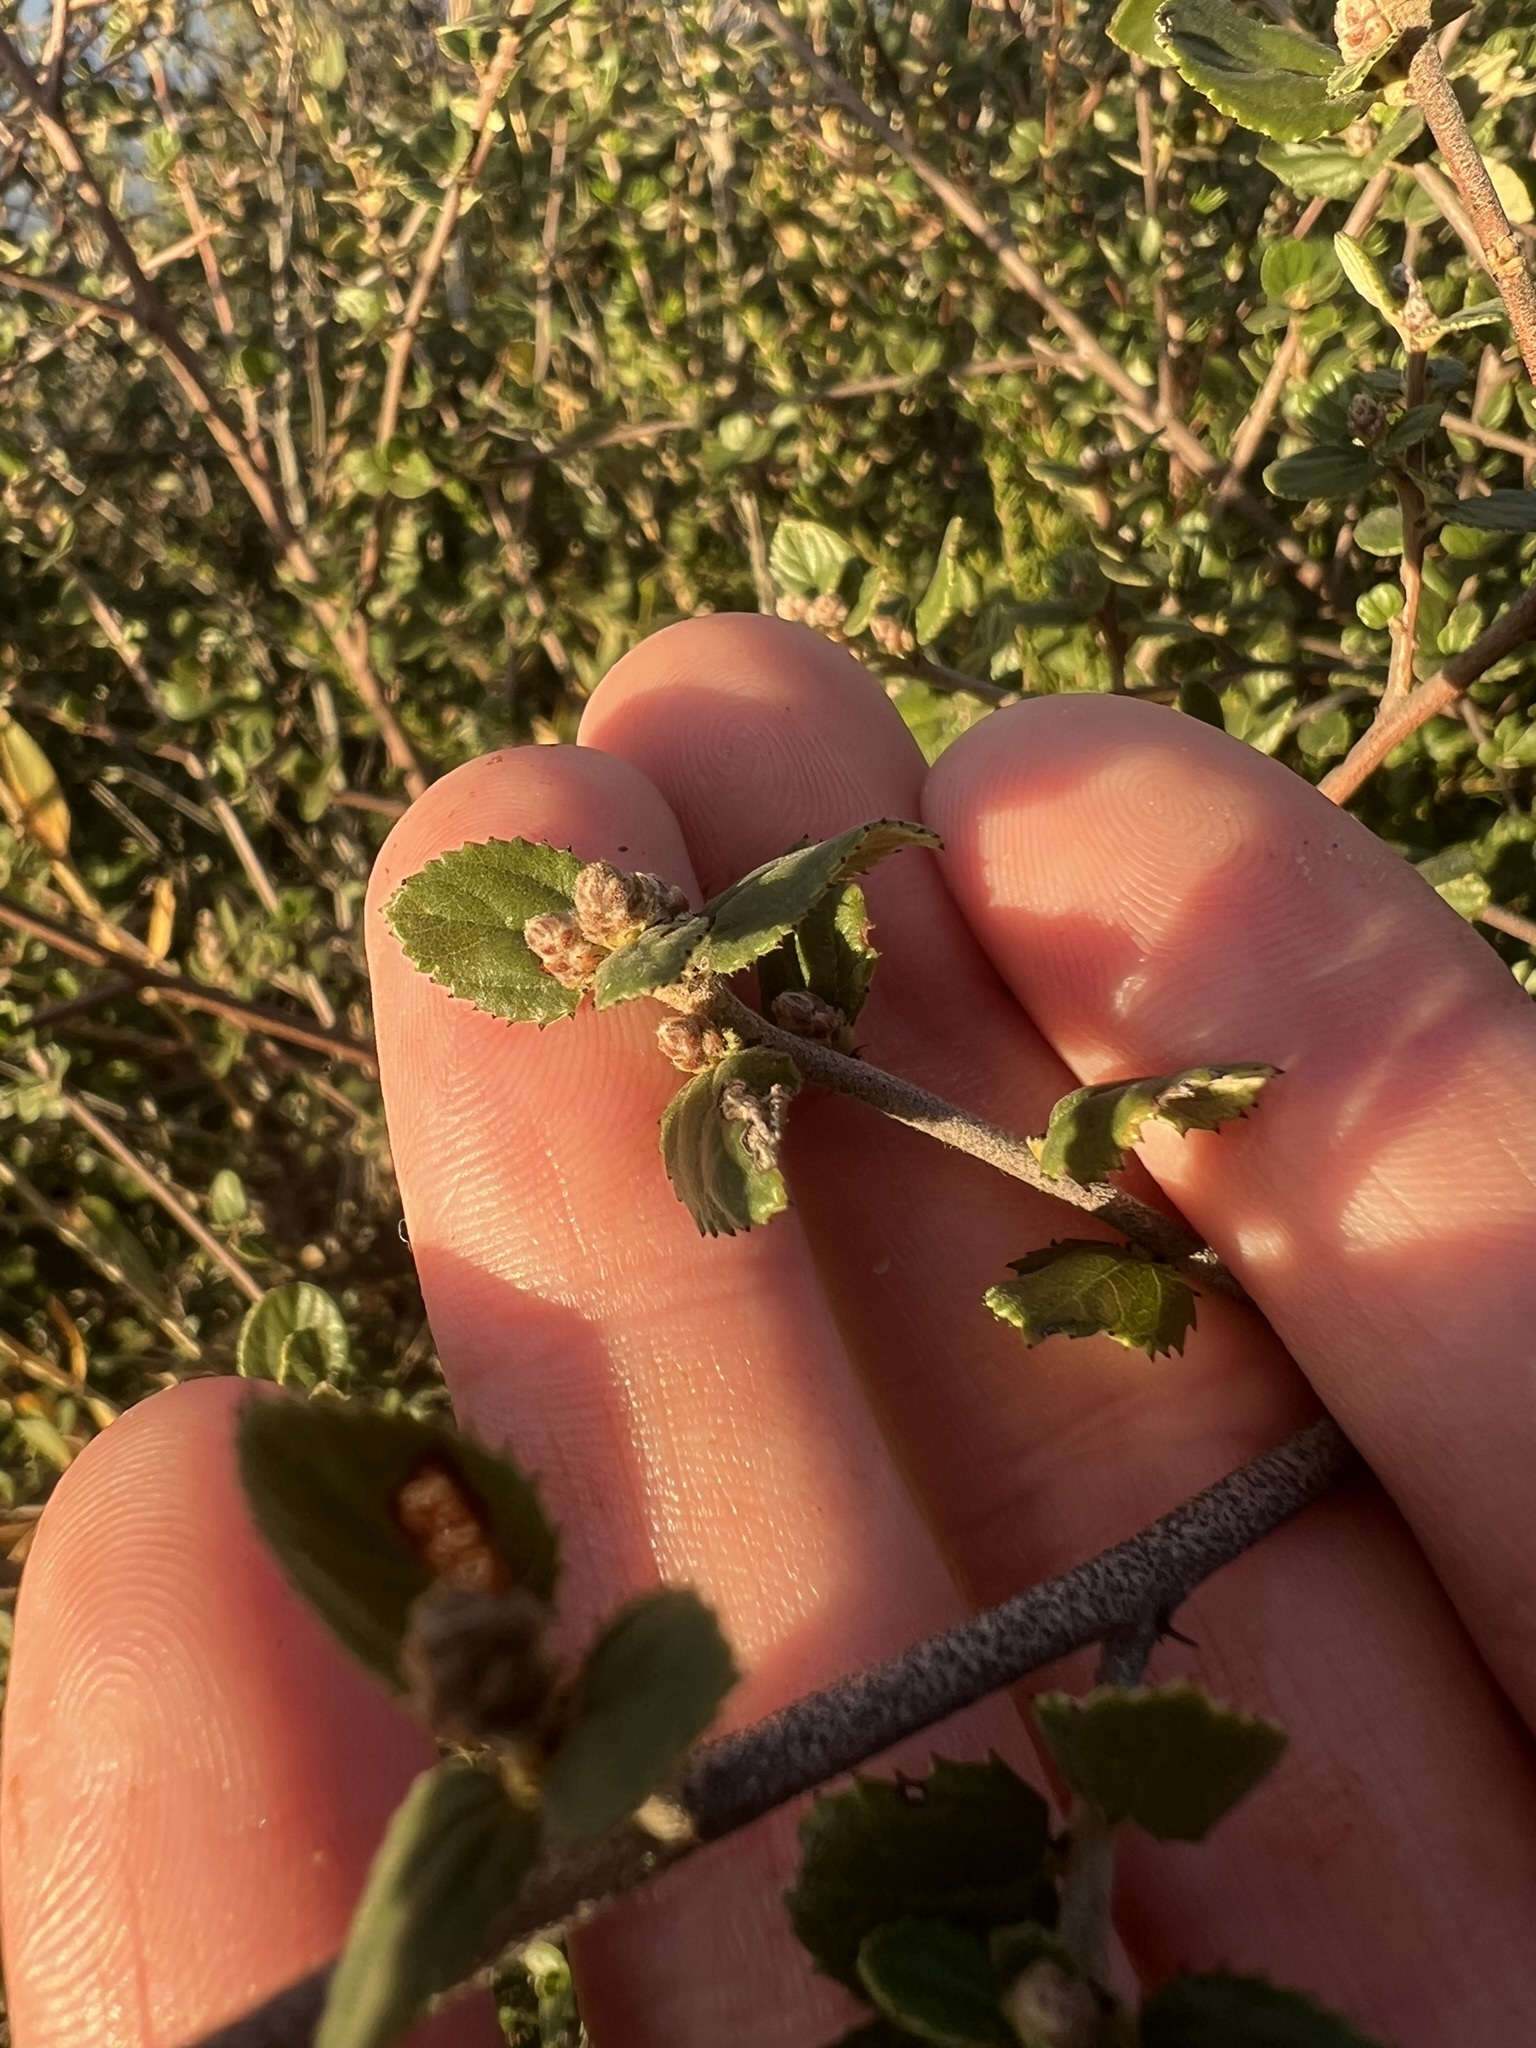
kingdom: Plantae
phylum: Tracheophyta
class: Magnoliopsida
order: Rosales
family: Rhamnaceae
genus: Ceanothus
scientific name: Ceanothus tomentosus
